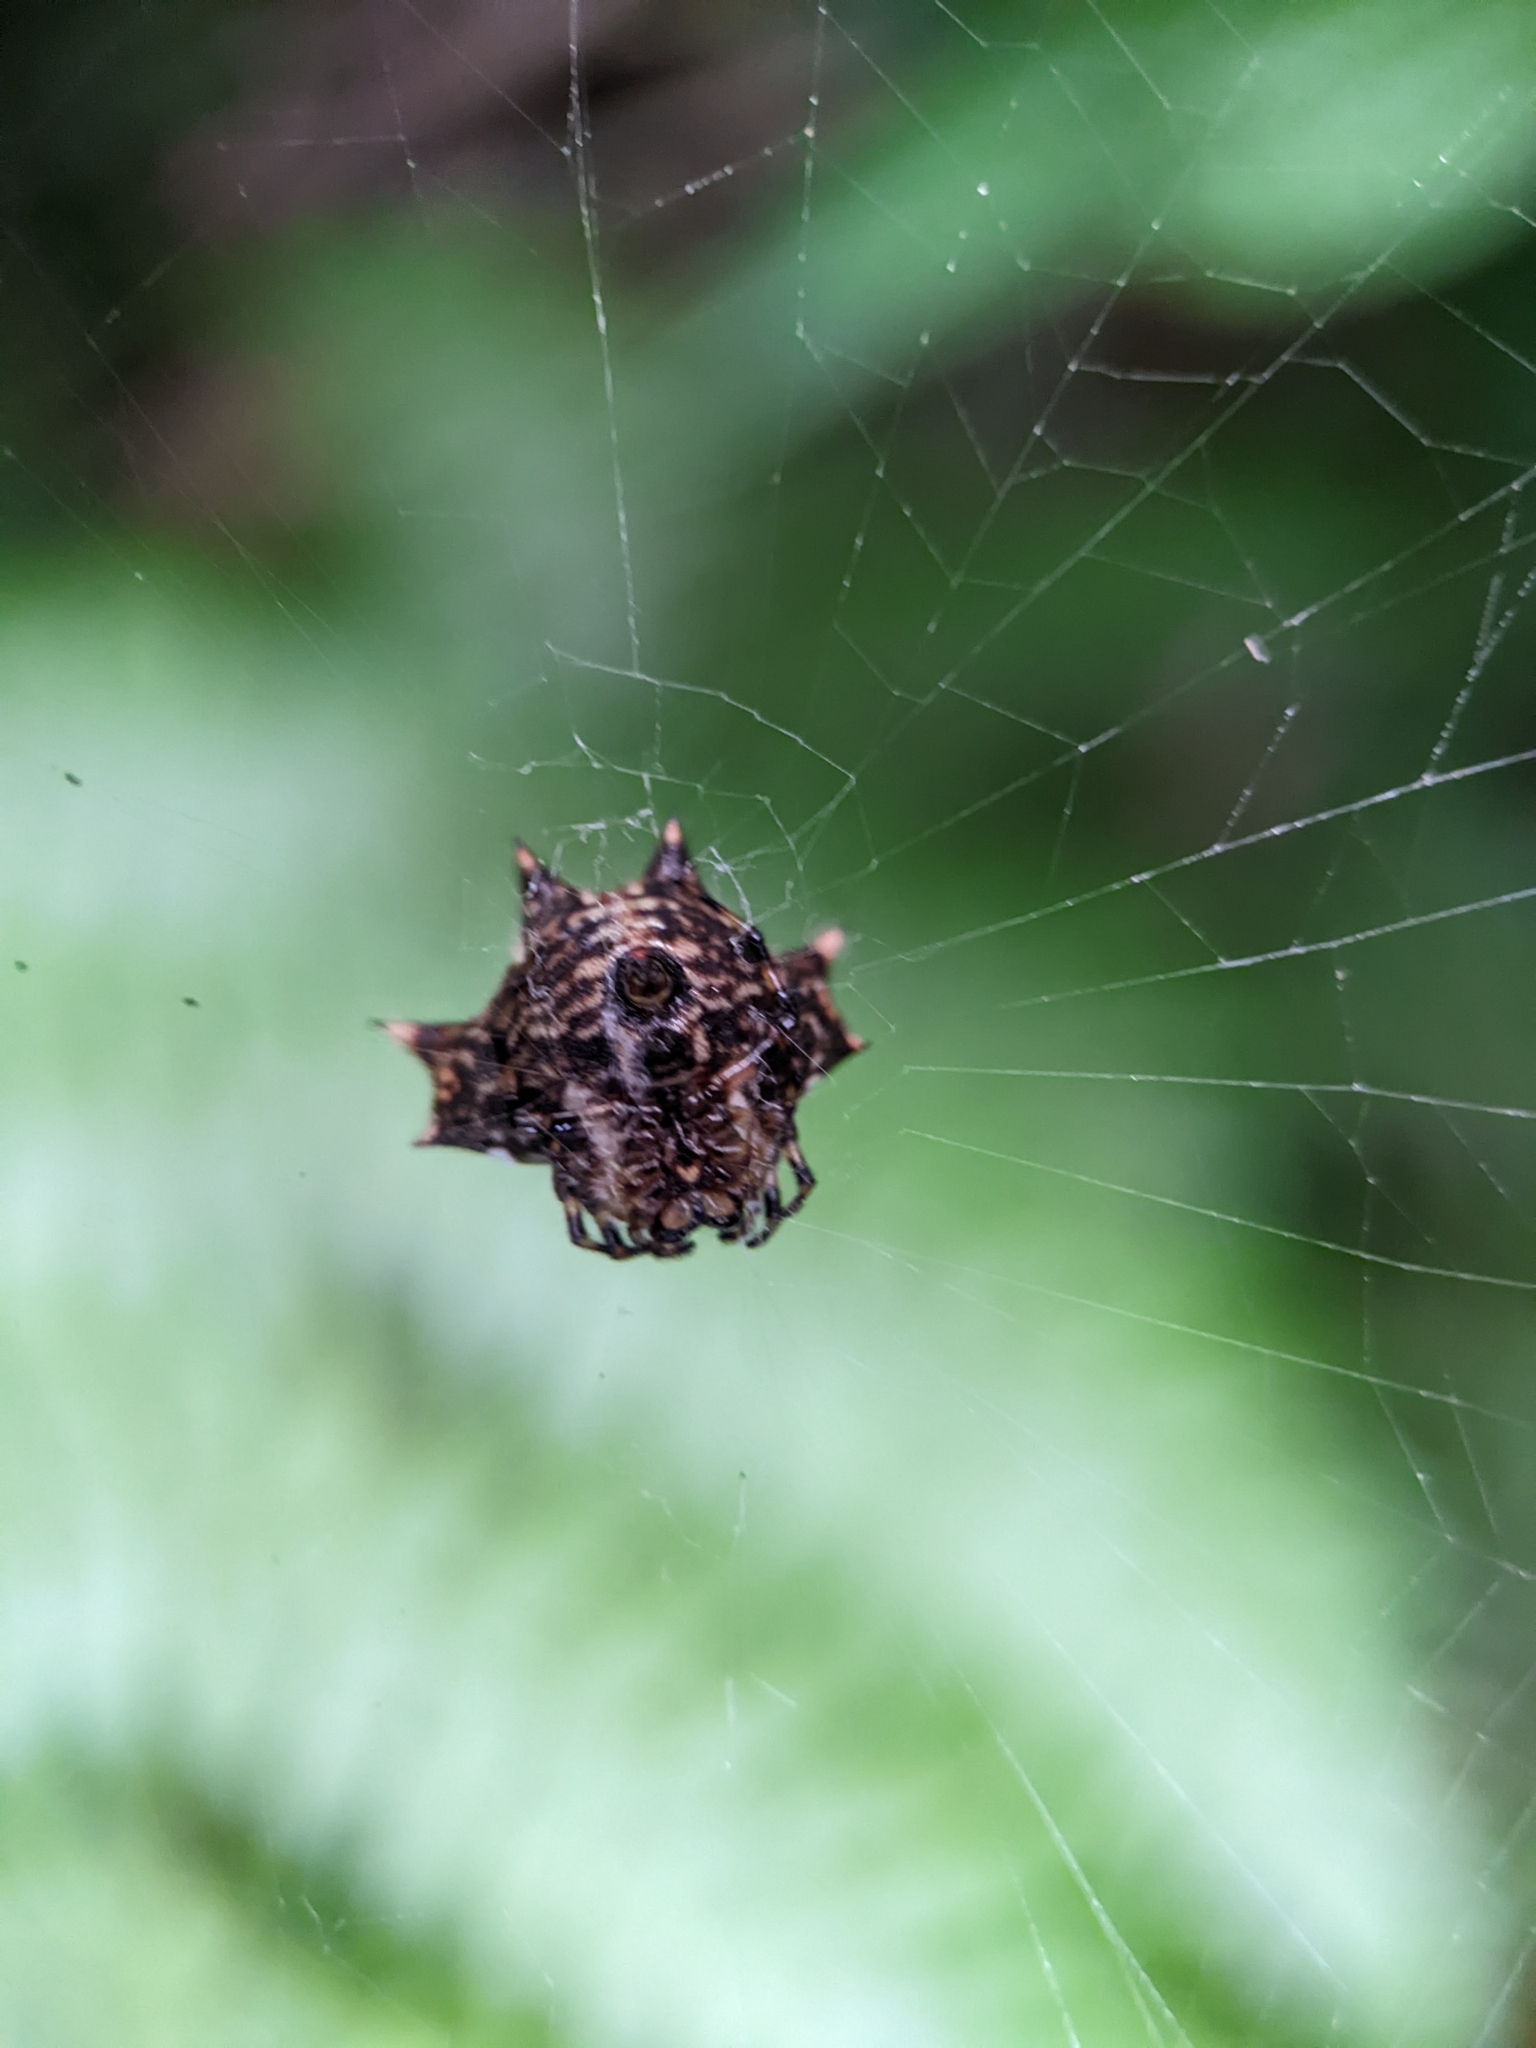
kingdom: Animalia
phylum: Arthropoda
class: Arachnida
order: Araneae
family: Araneidae
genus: Gasteracantha
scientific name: Gasteracantha kuhli
